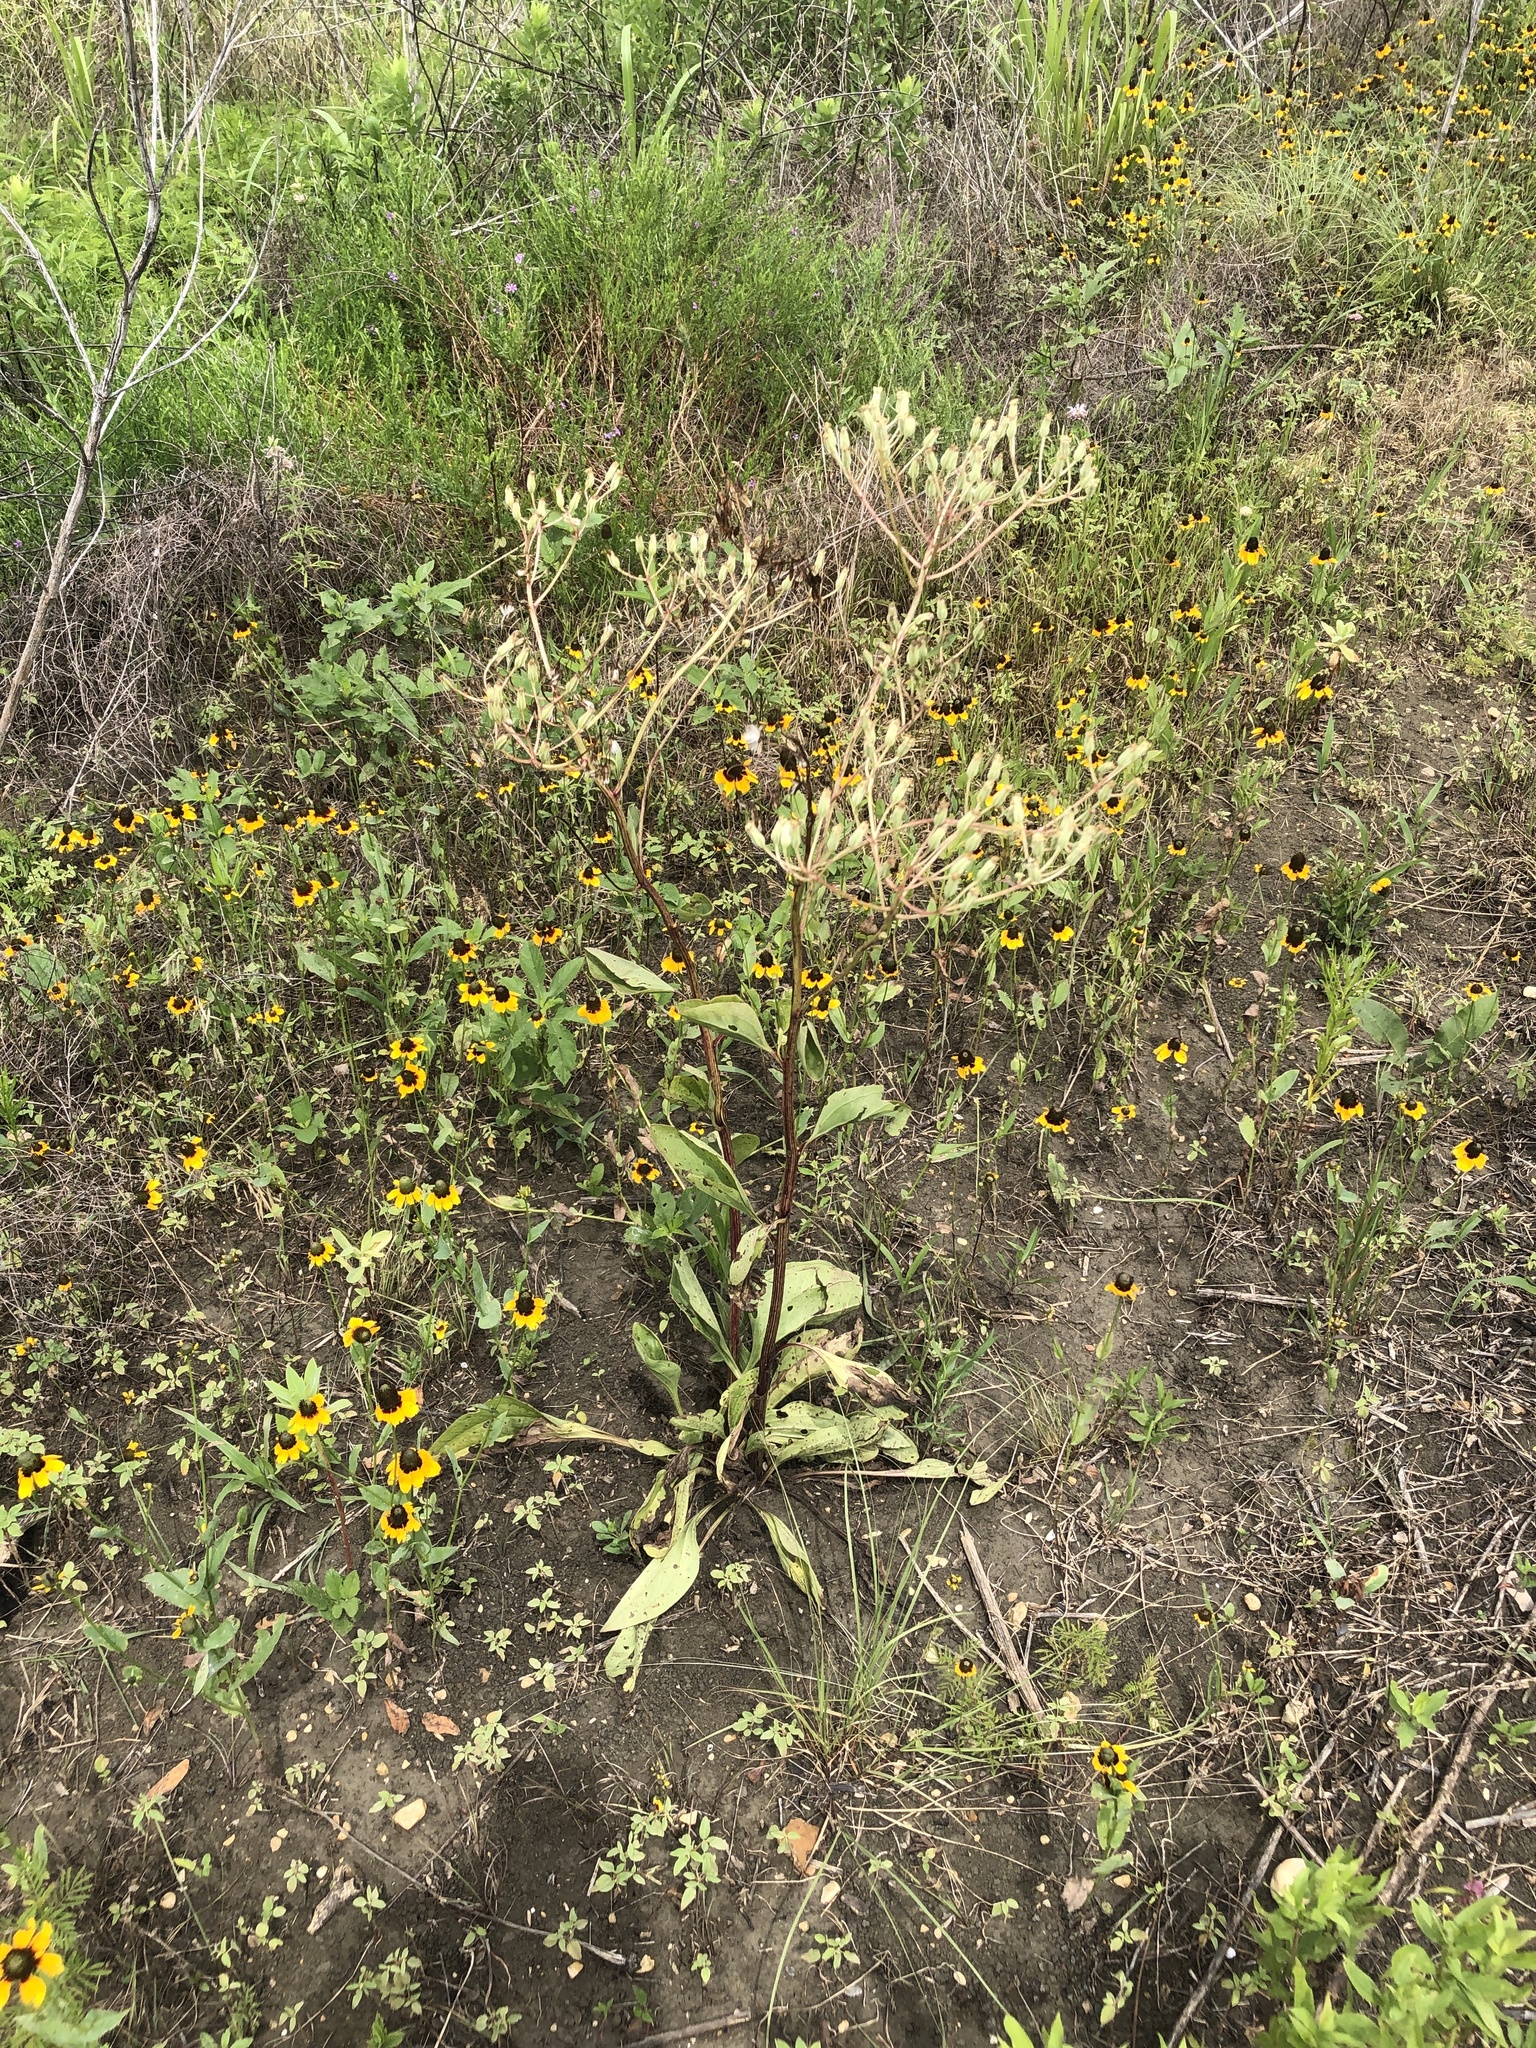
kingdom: Plantae
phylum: Tracheophyta
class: Magnoliopsida
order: Asterales
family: Asteraceae
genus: Arnoglossum
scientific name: Arnoglossum plantagineum
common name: Groove-stemmed indian-plantain
